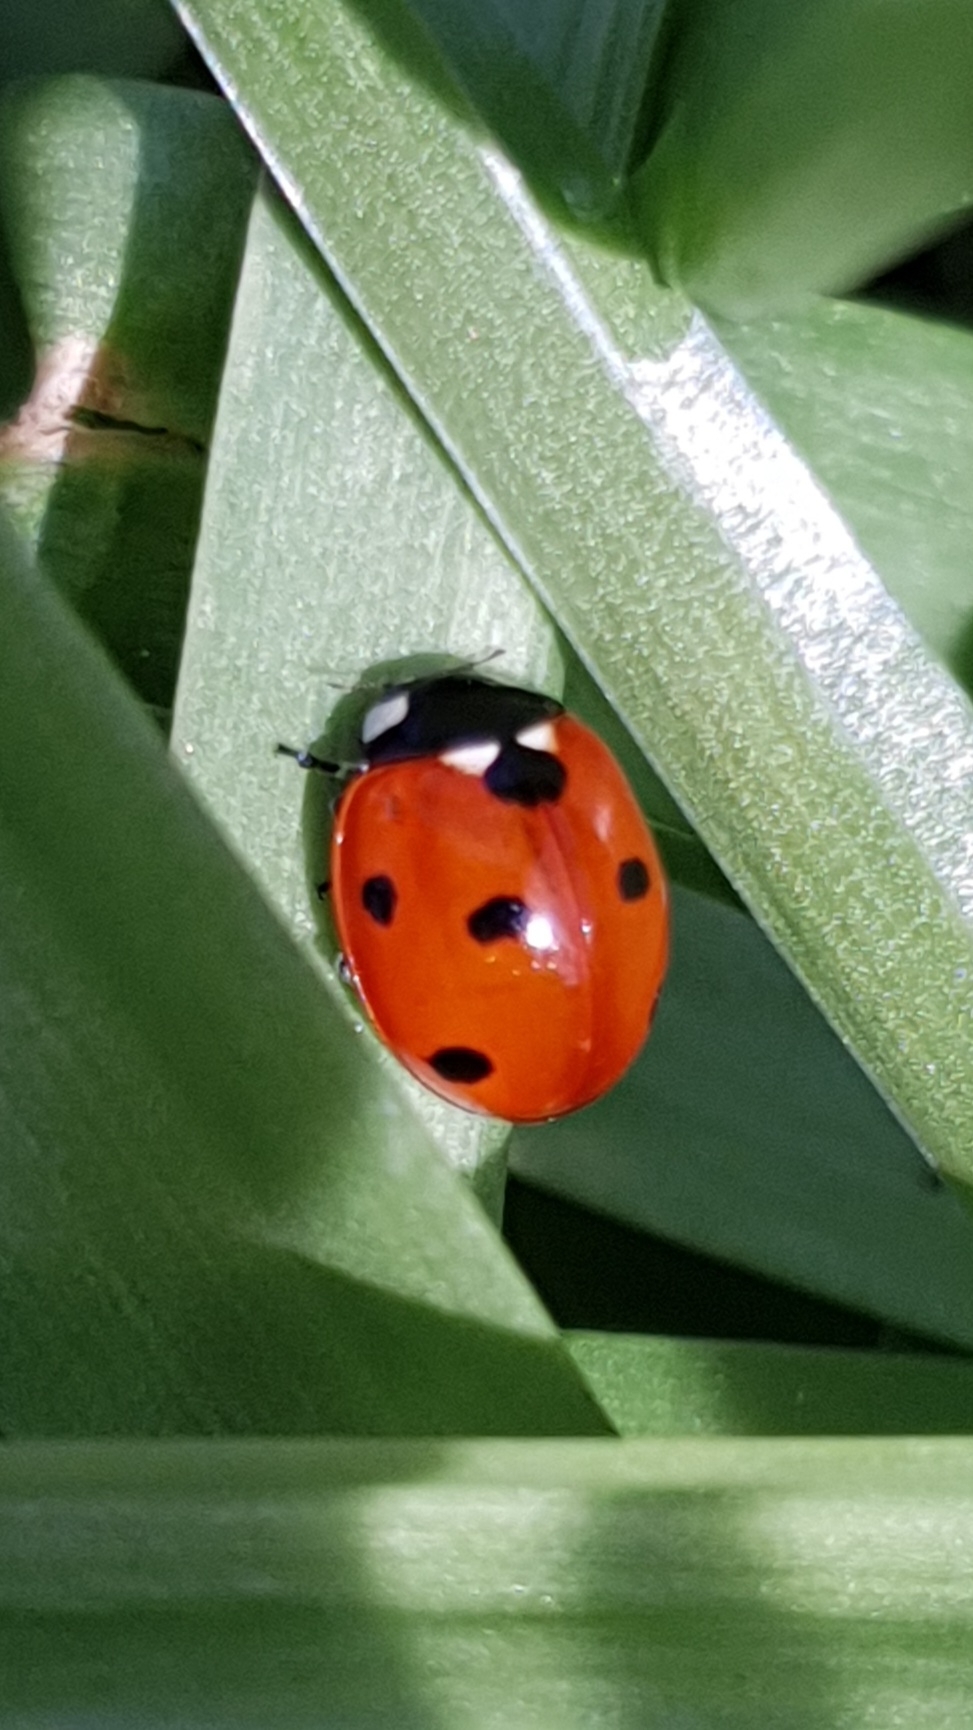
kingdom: Animalia
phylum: Arthropoda
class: Insecta
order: Coleoptera
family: Coccinellidae
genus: Coccinella
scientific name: Coccinella septempunctata
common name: Sevenspotted lady beetle
